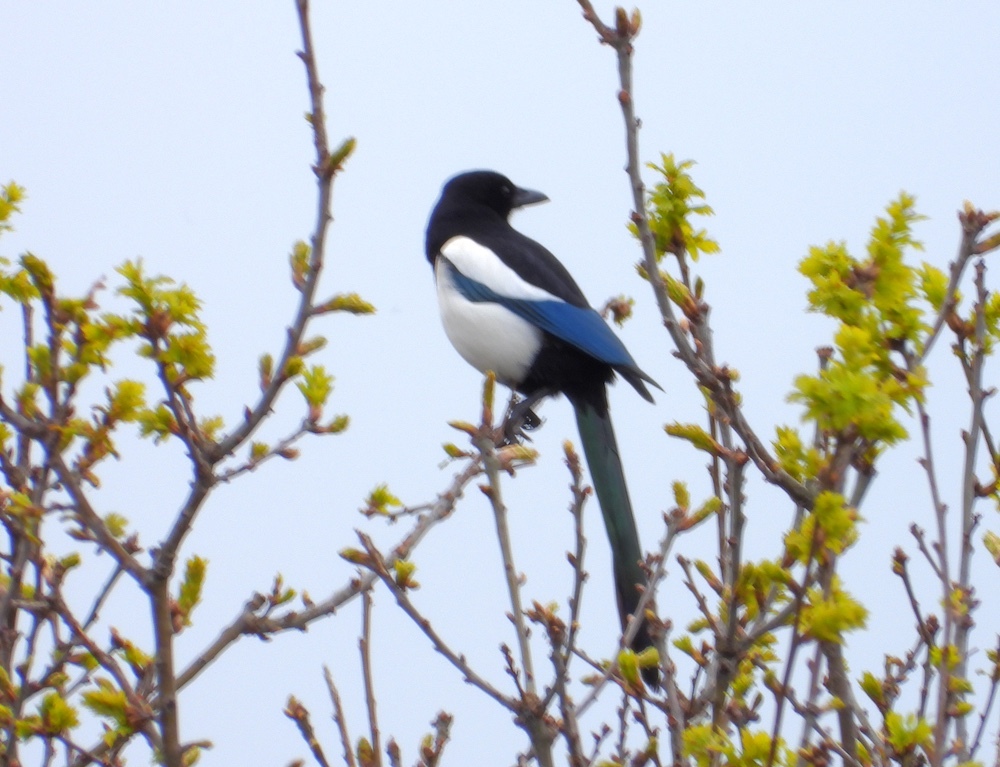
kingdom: Animalia
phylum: Chordata
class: Aves
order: Passeriformes
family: Corvidae
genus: Pica
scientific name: Pica pica
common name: Eurasian magpie
